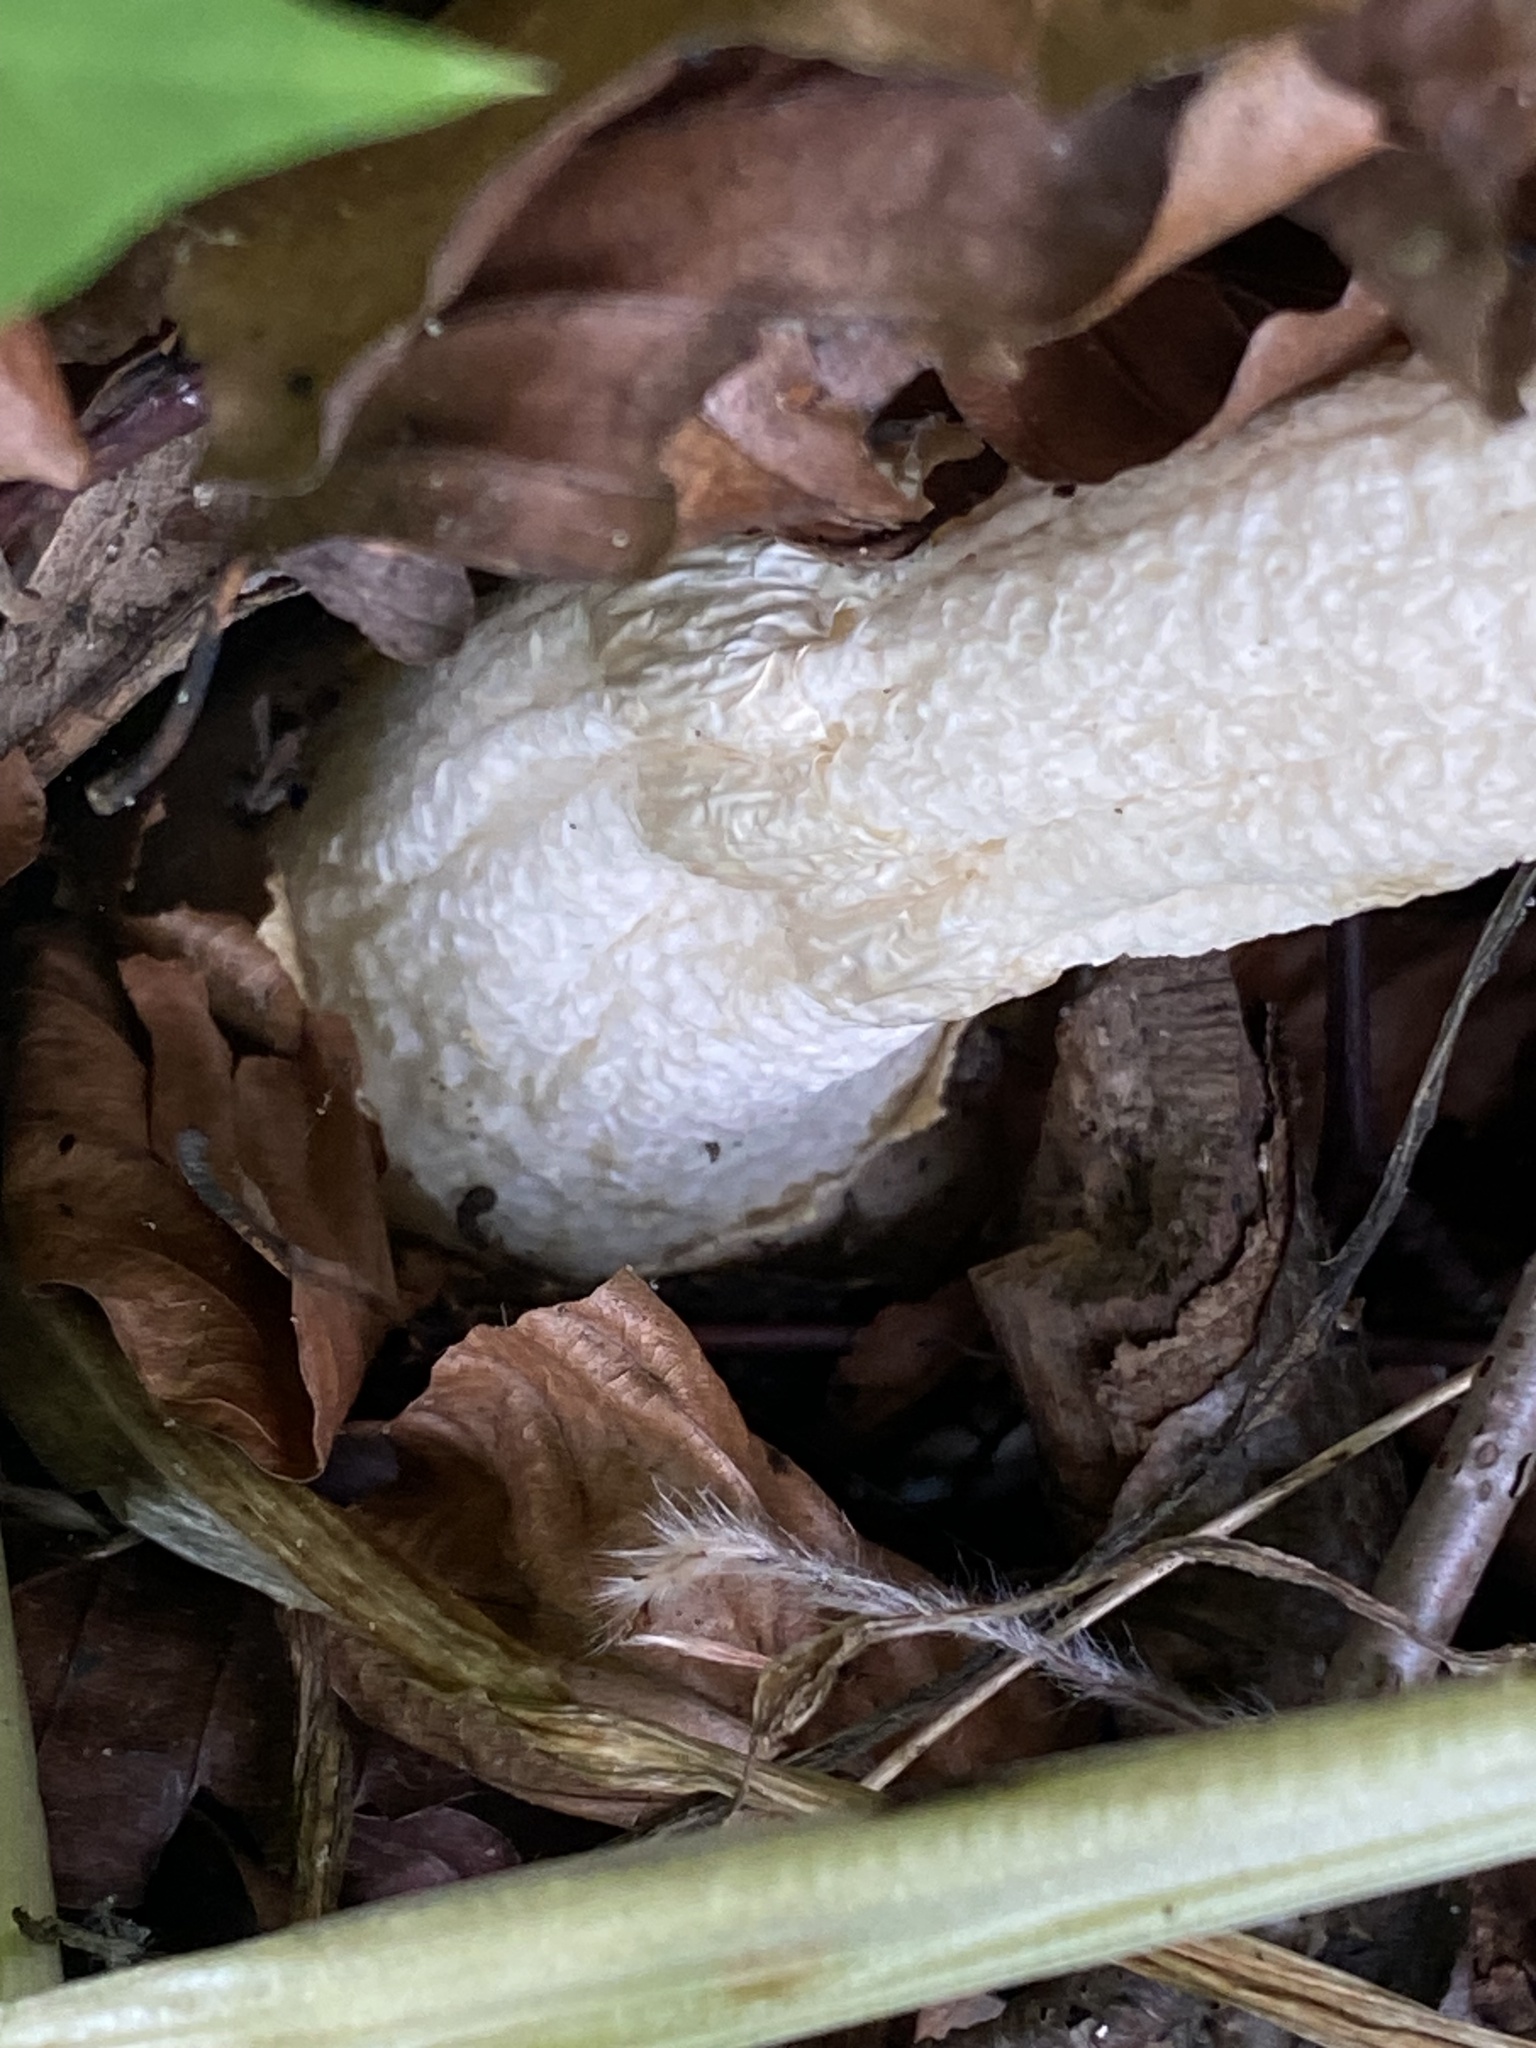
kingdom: Fungi
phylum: Basidiomycota
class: Agaricomycetes
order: Phallales
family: Phallaceae
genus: Phallus
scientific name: Phallus impudicus
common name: Common stinkhorn
